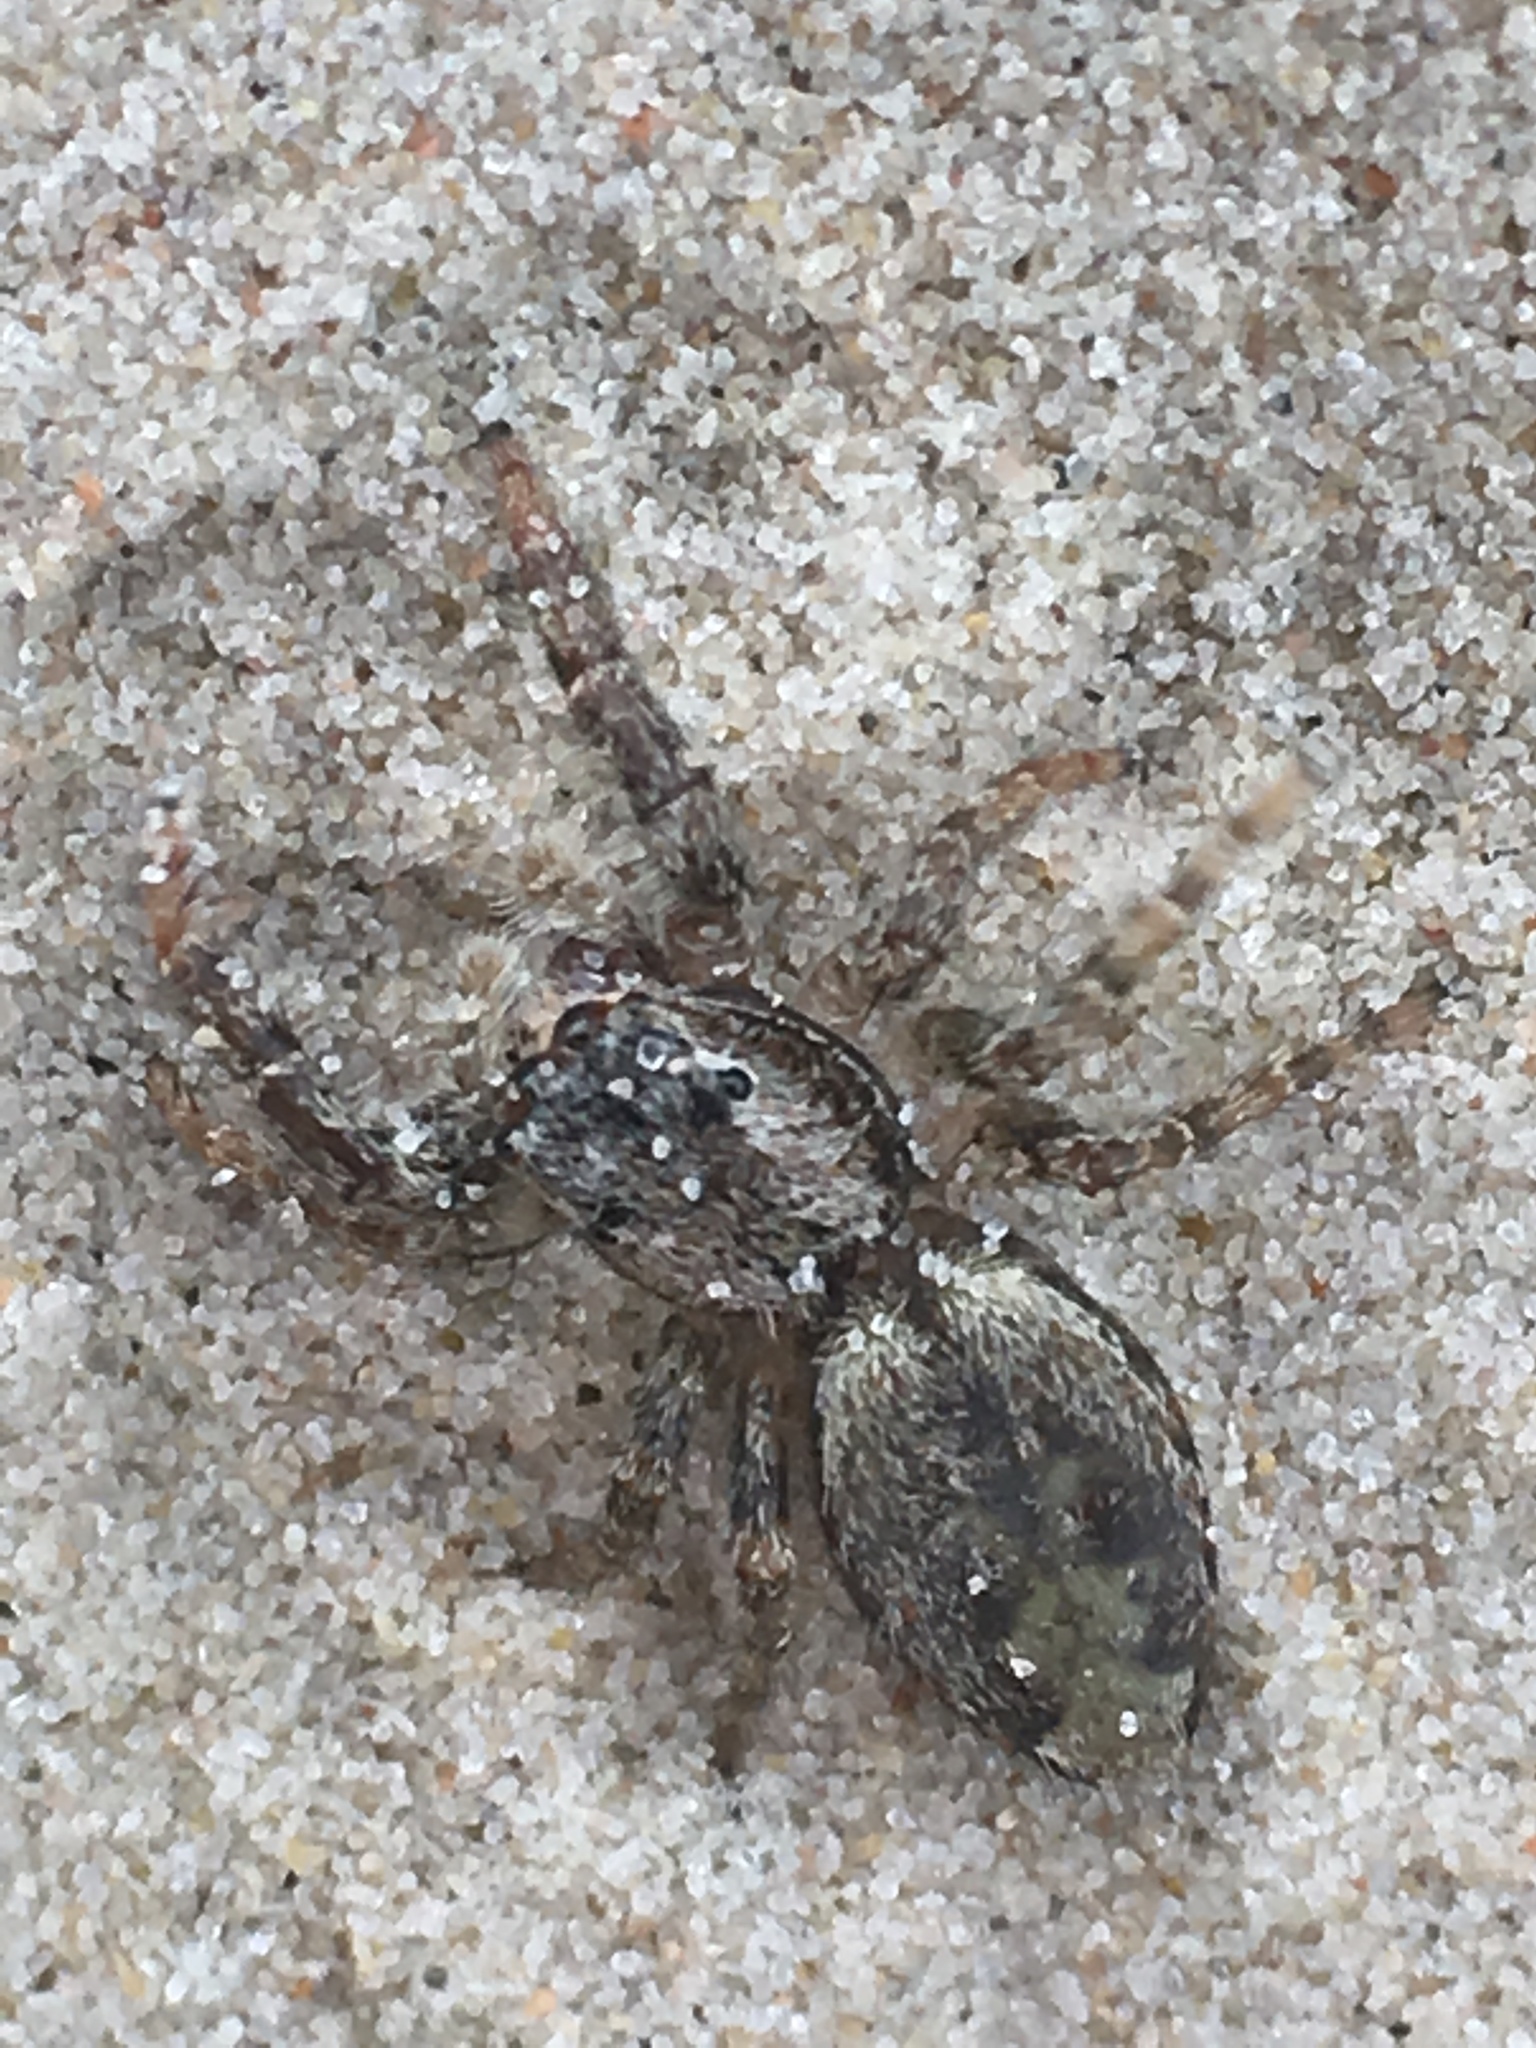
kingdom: Animalia
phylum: Arthropoda
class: Arachnida
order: Araneae
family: Salticidae
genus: Marpissa
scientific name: Marpissa muscosa
